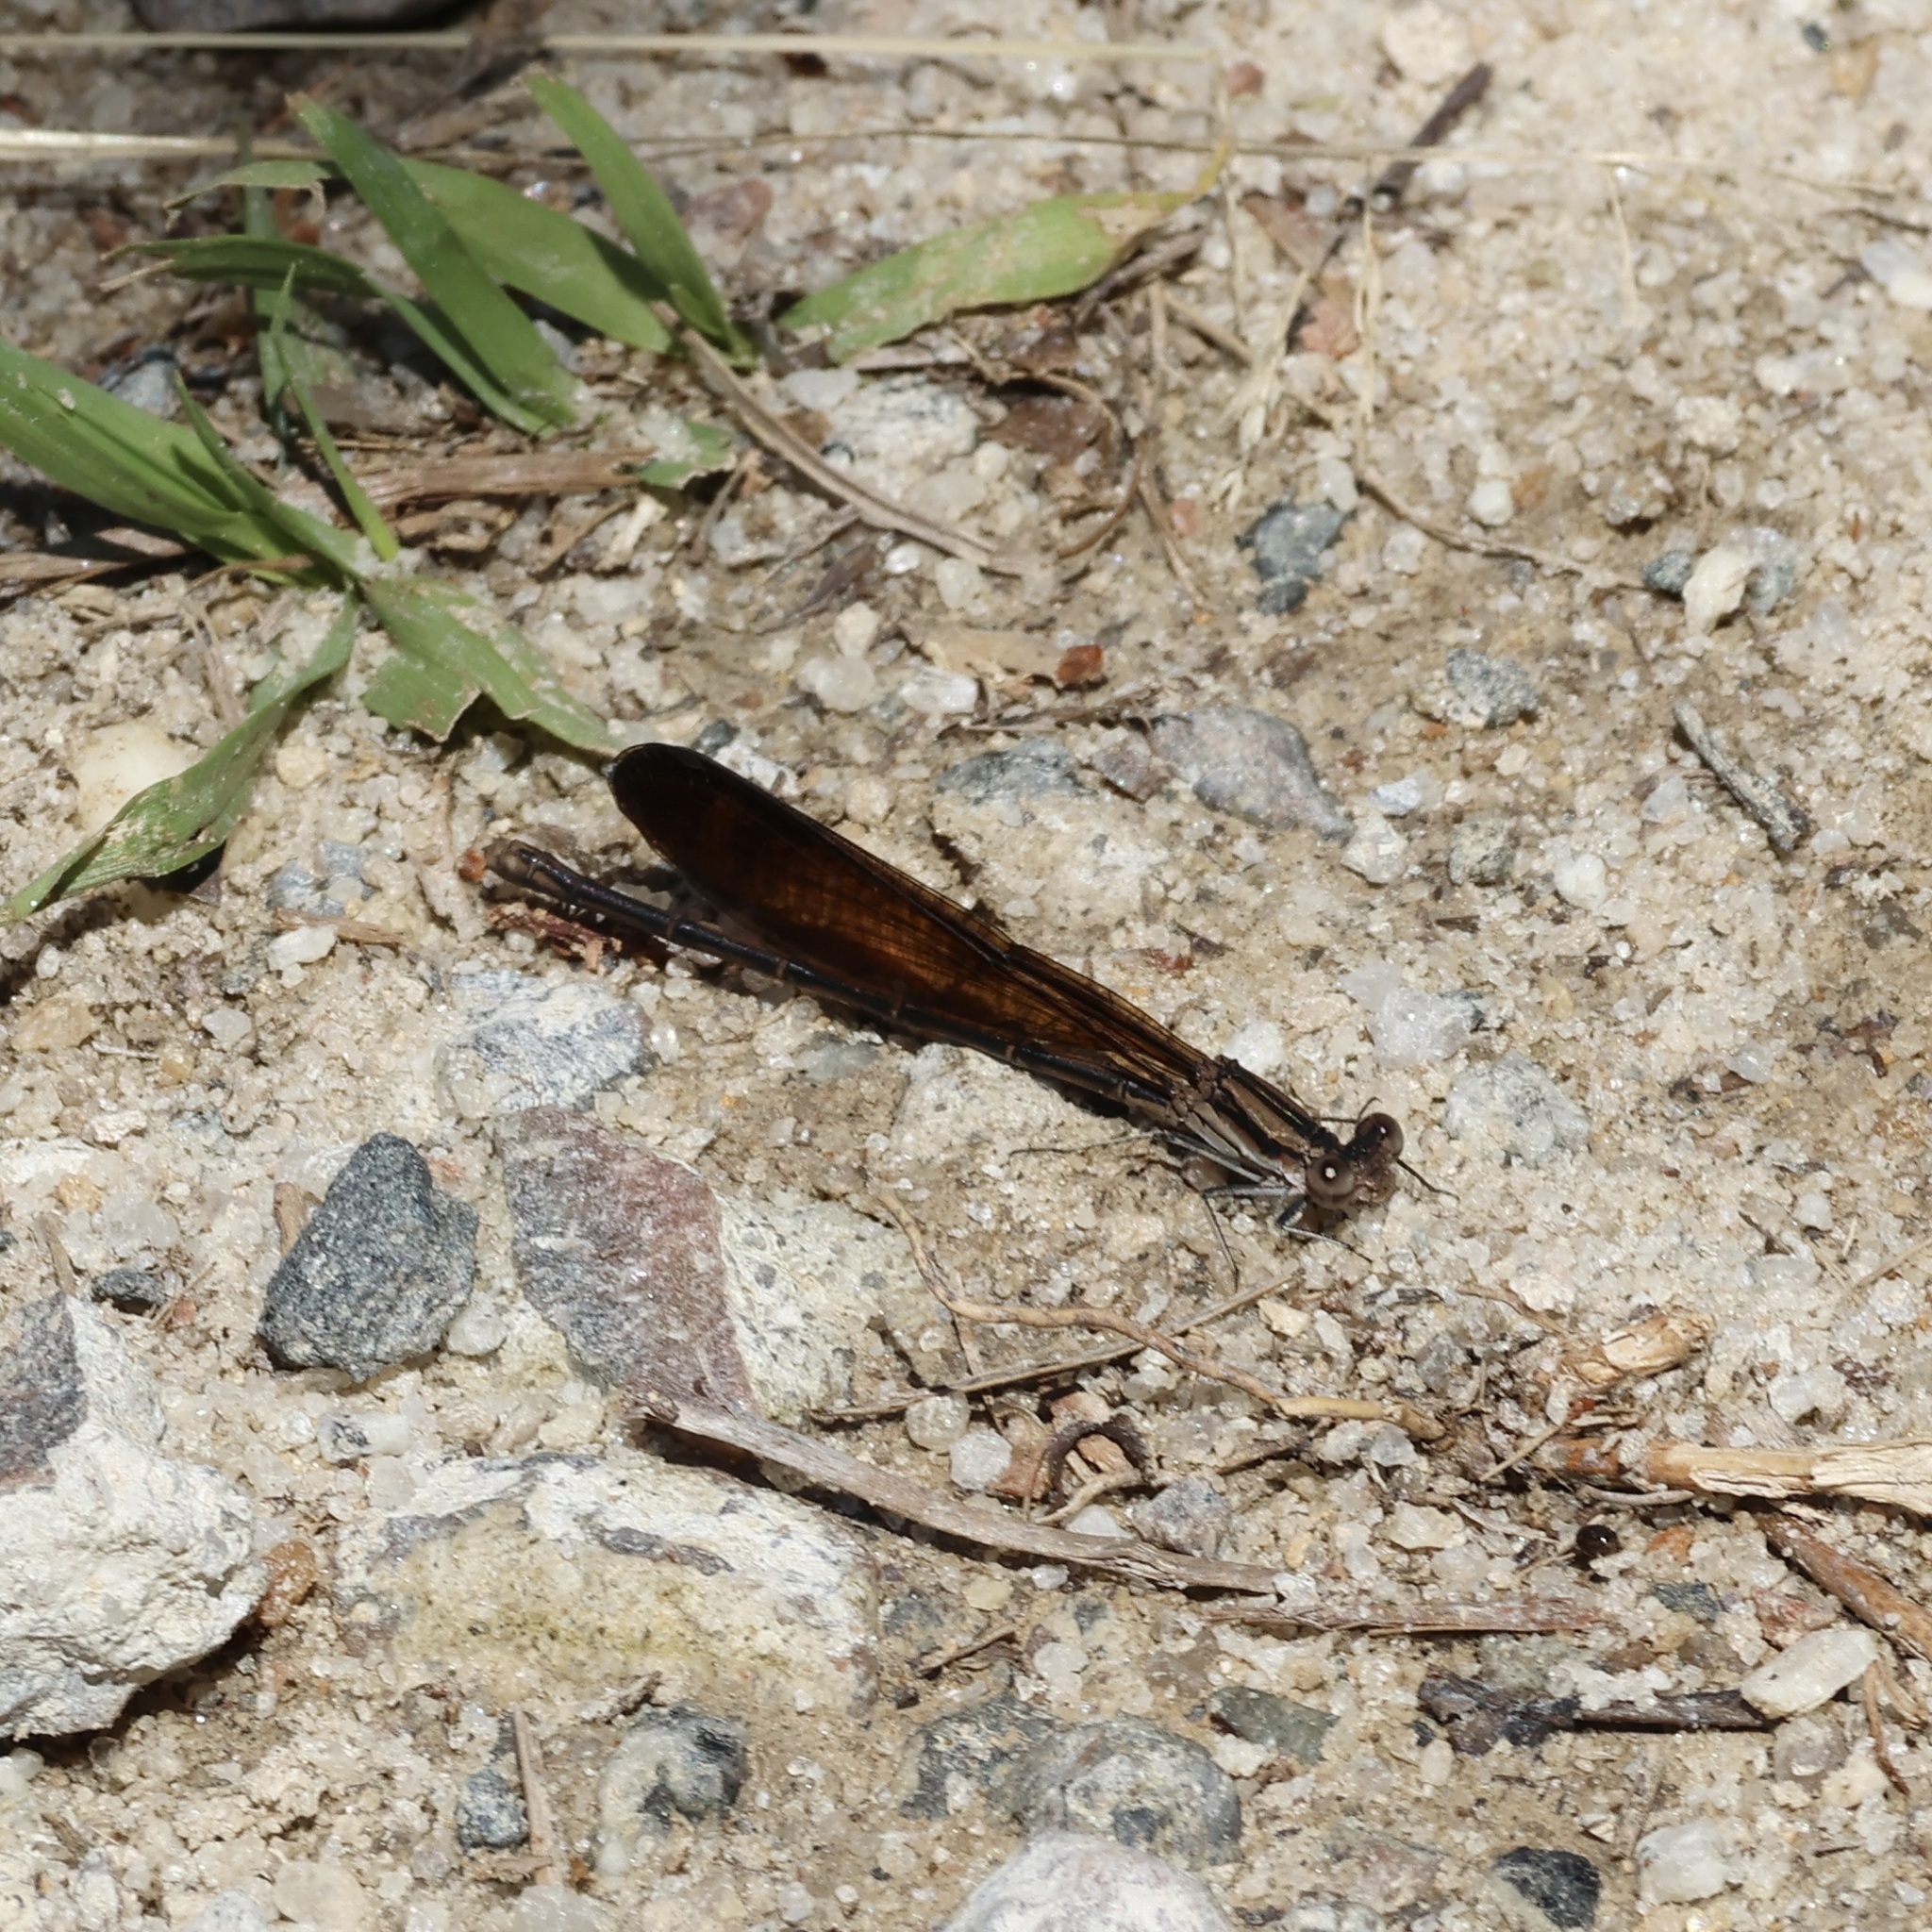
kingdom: Animalia
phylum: Arthropoda
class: Insecta
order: Odonata
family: Coenagrionidae
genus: Argia
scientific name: Argia fumipennis
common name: Variable dancer
